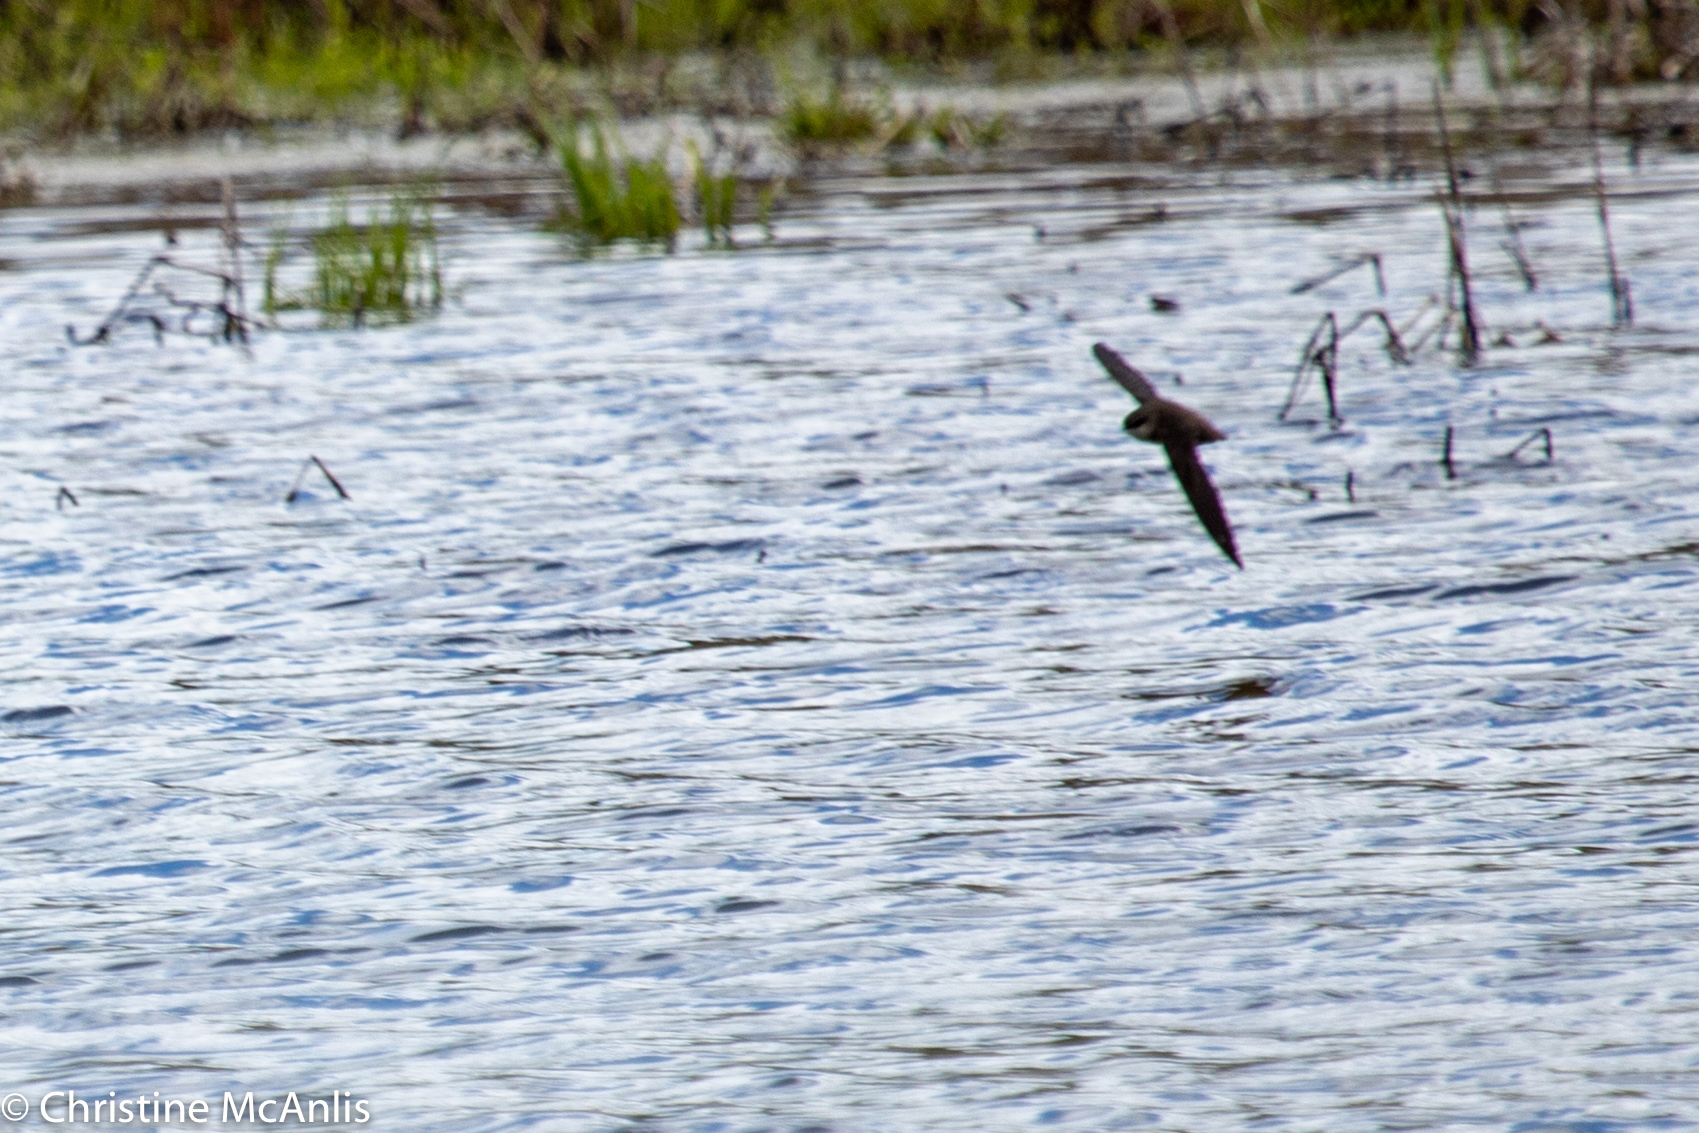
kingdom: Animalia
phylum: Chordata
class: Aves
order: Apodiformes
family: Apodidae
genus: Chaetura
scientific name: Chaetura pelagica
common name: Chimney swift
